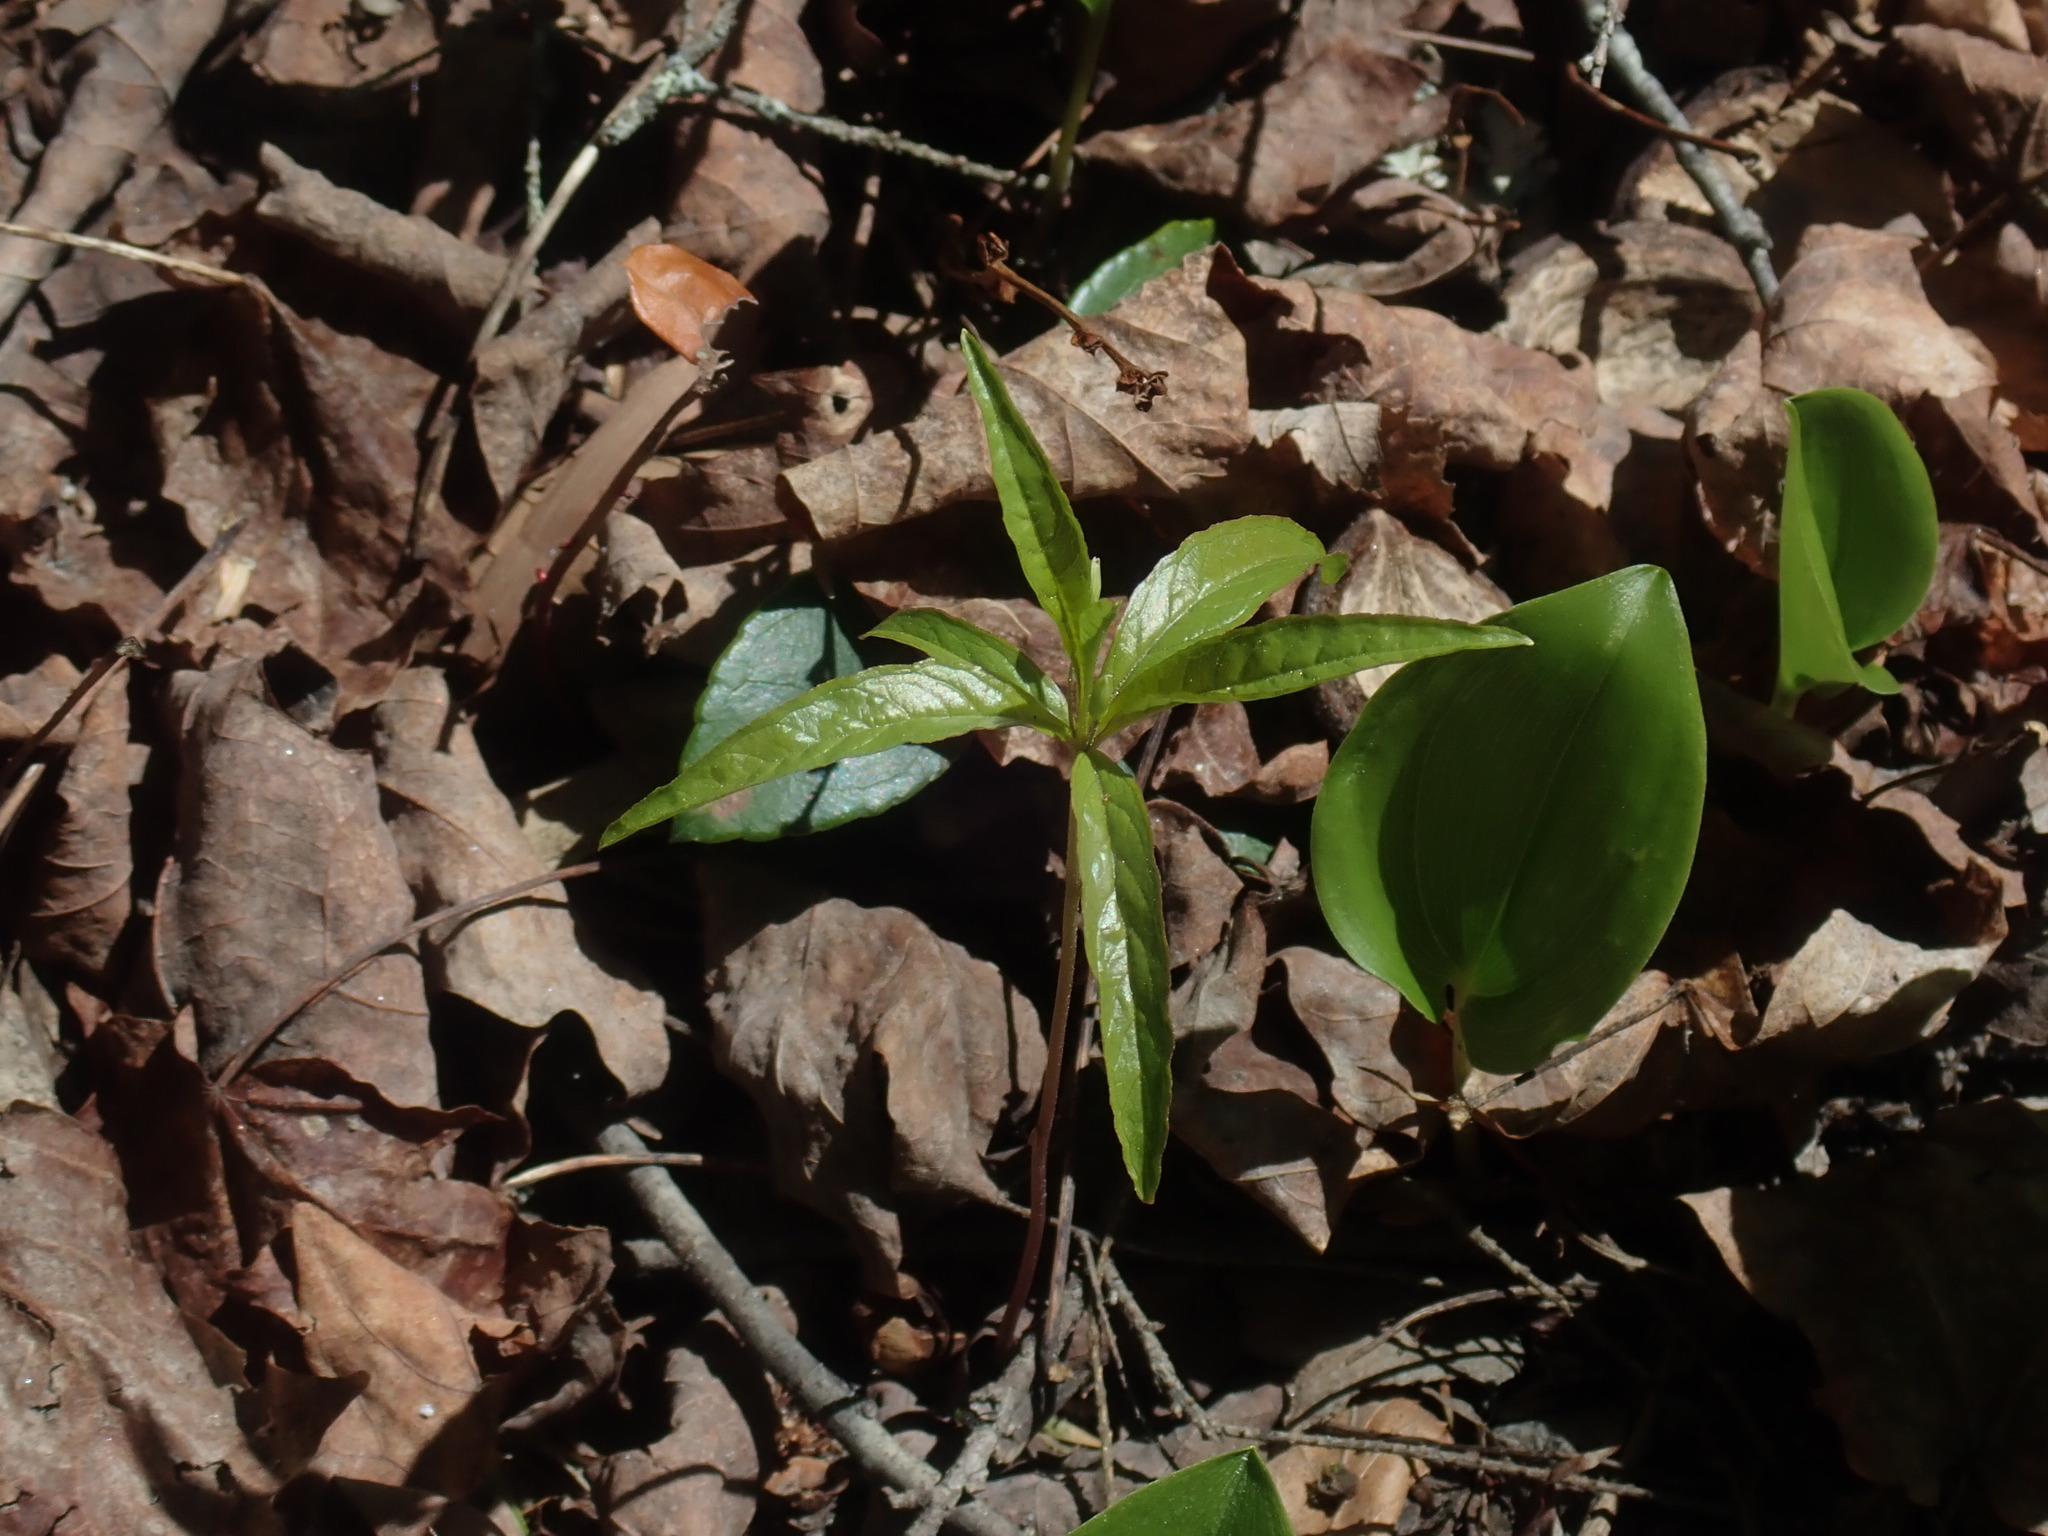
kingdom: Plantae
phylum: Tracheophyta
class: Magnoliopsida
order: Ericales
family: Primulaceae
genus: Lysimachia
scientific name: Lysimachia borealis
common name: American starflower
